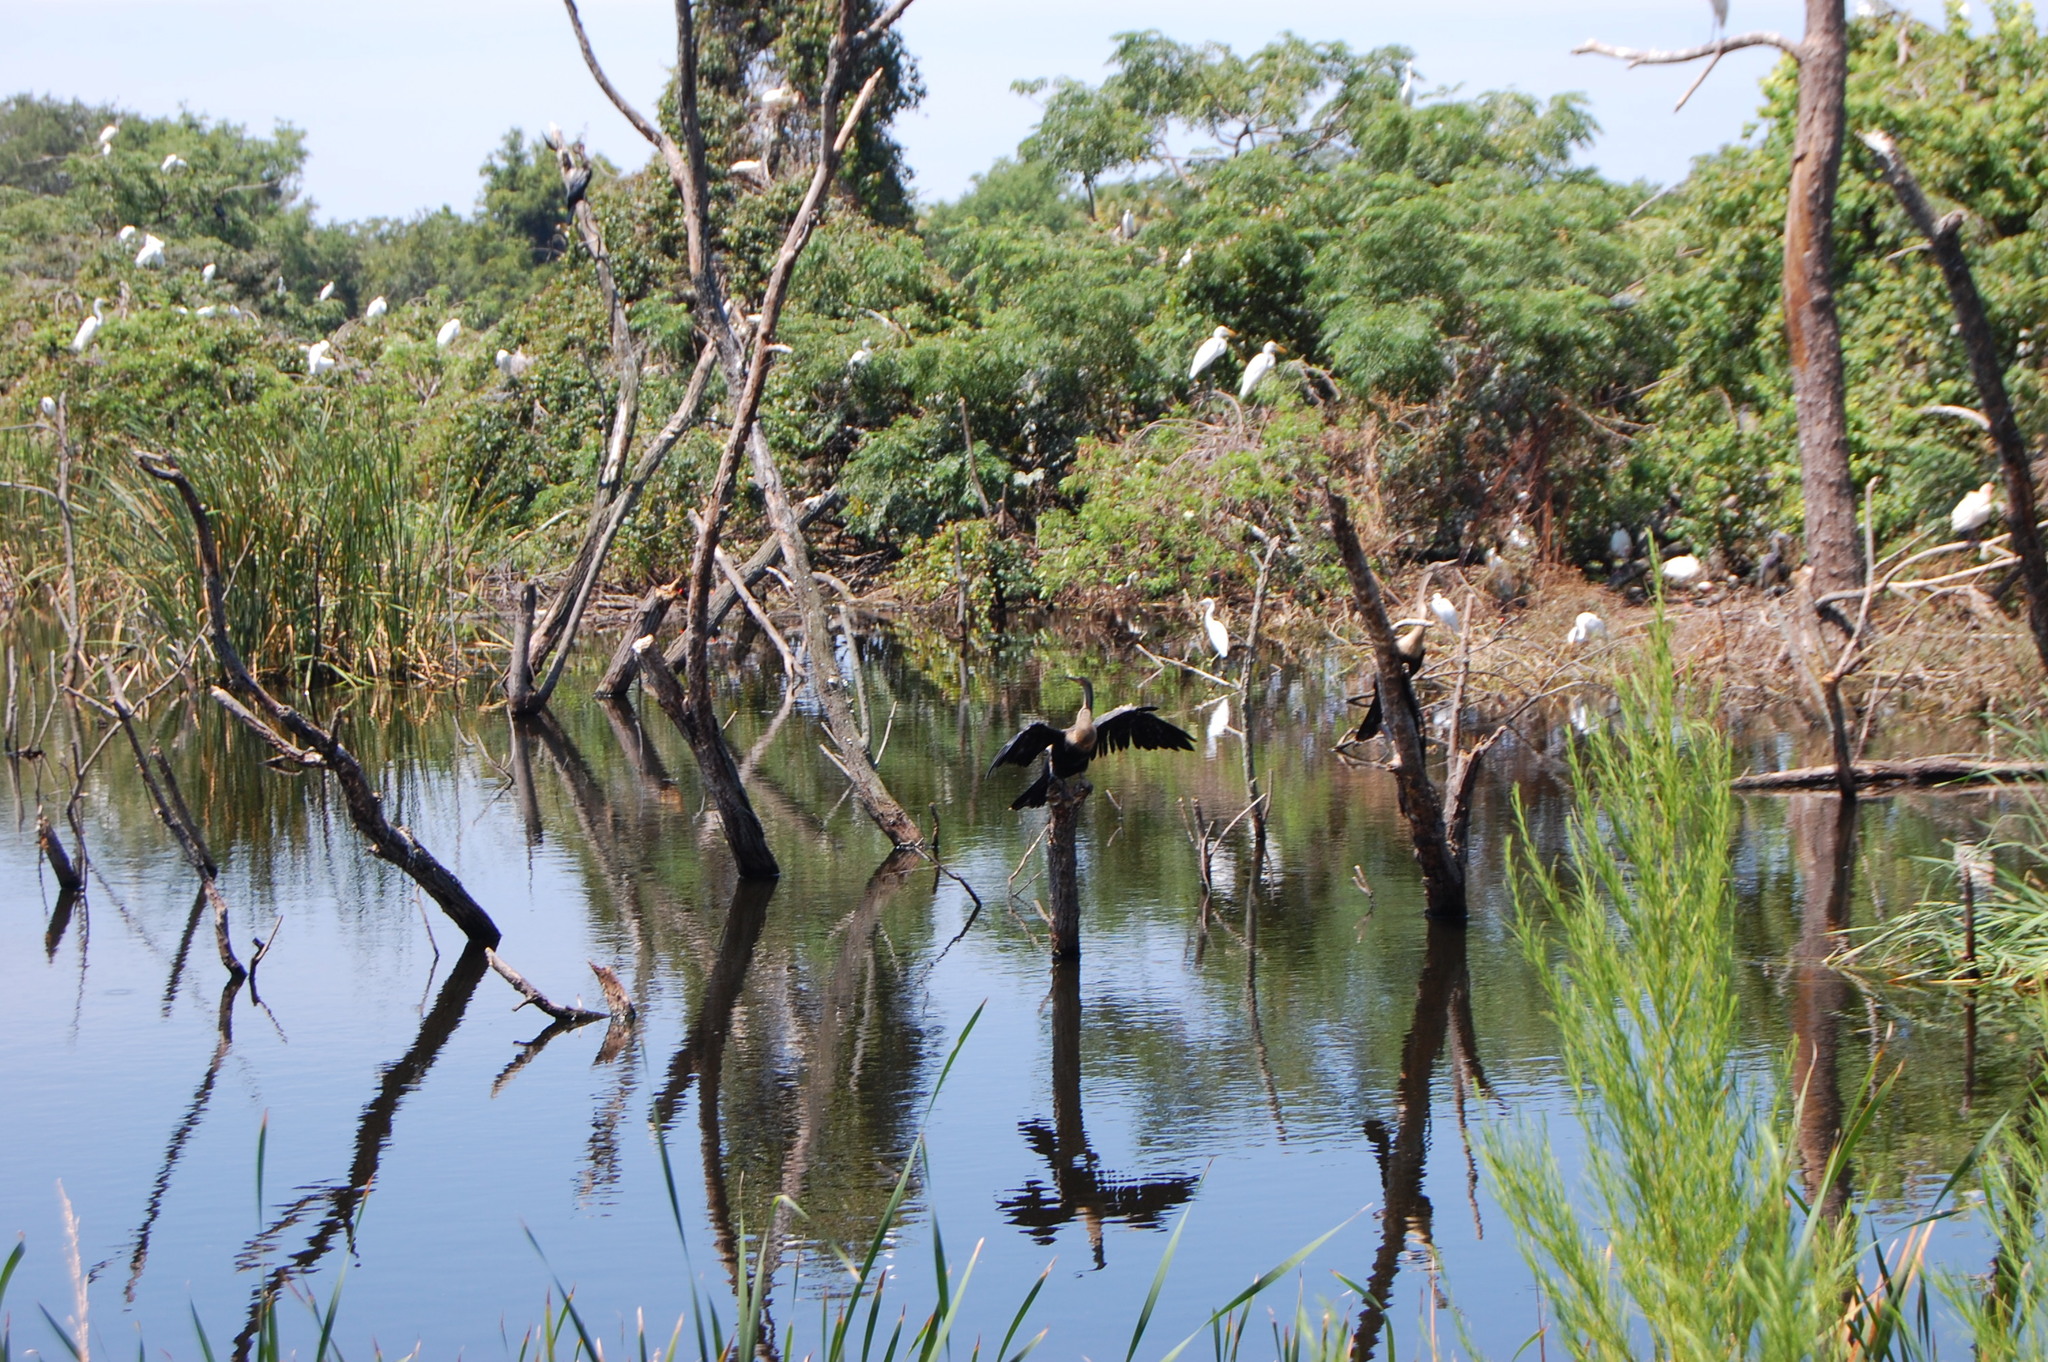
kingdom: Animalia
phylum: Chordata
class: Aves
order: Suliformes
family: Anhingidae
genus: Anhinga
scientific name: Anhinga anhinga
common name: Anhinga
